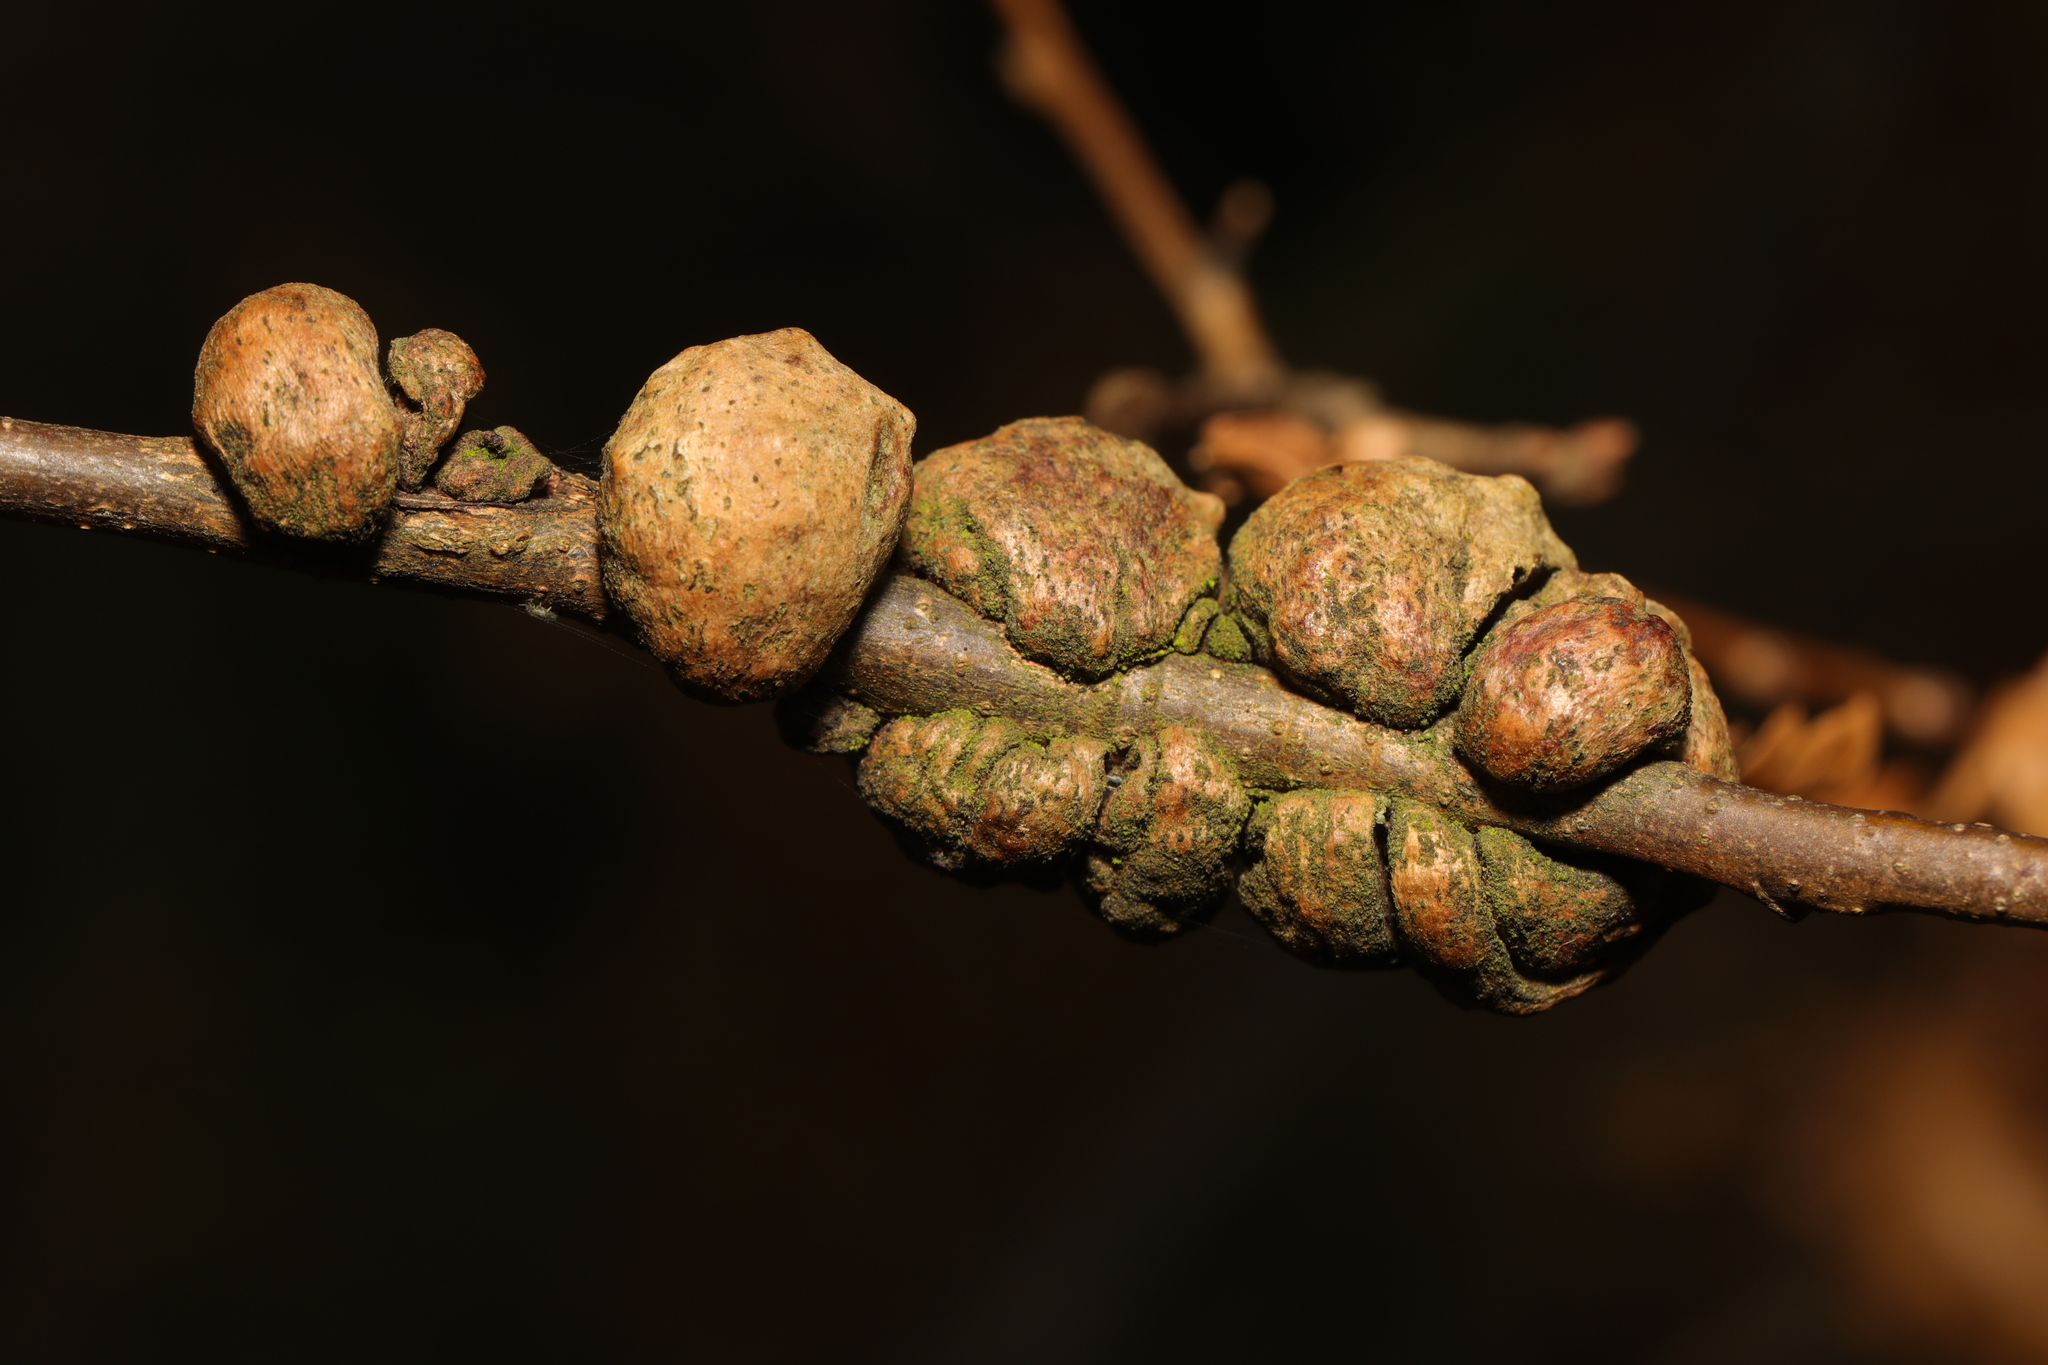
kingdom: Animalia
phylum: Arthropoda
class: Insecta
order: Hymenoptera
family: Cynipidae
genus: Aphelonyx
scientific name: Aphelonyx cerricola
